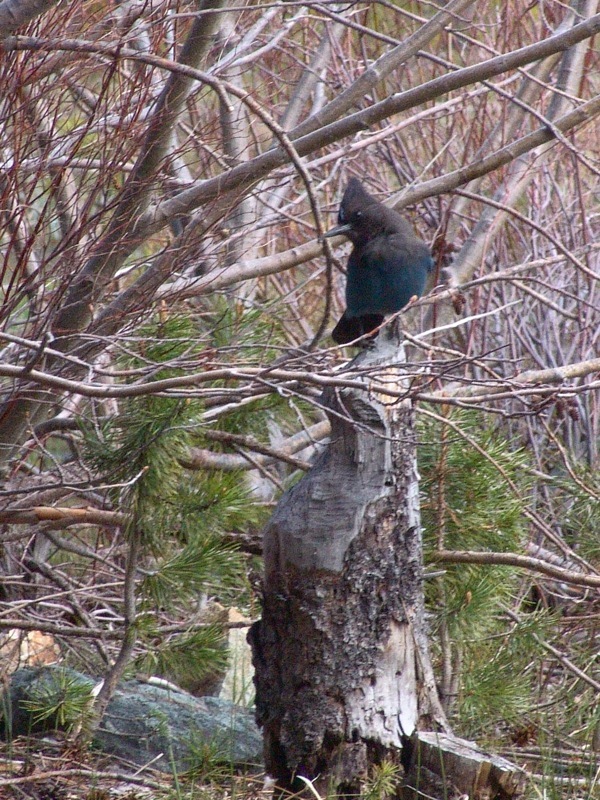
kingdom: Animalia
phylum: Chordata
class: Aves
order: Passeriformes
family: Corvidae
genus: Cyanocitta
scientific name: Cyanocitta stelleri
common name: Steller's jay
